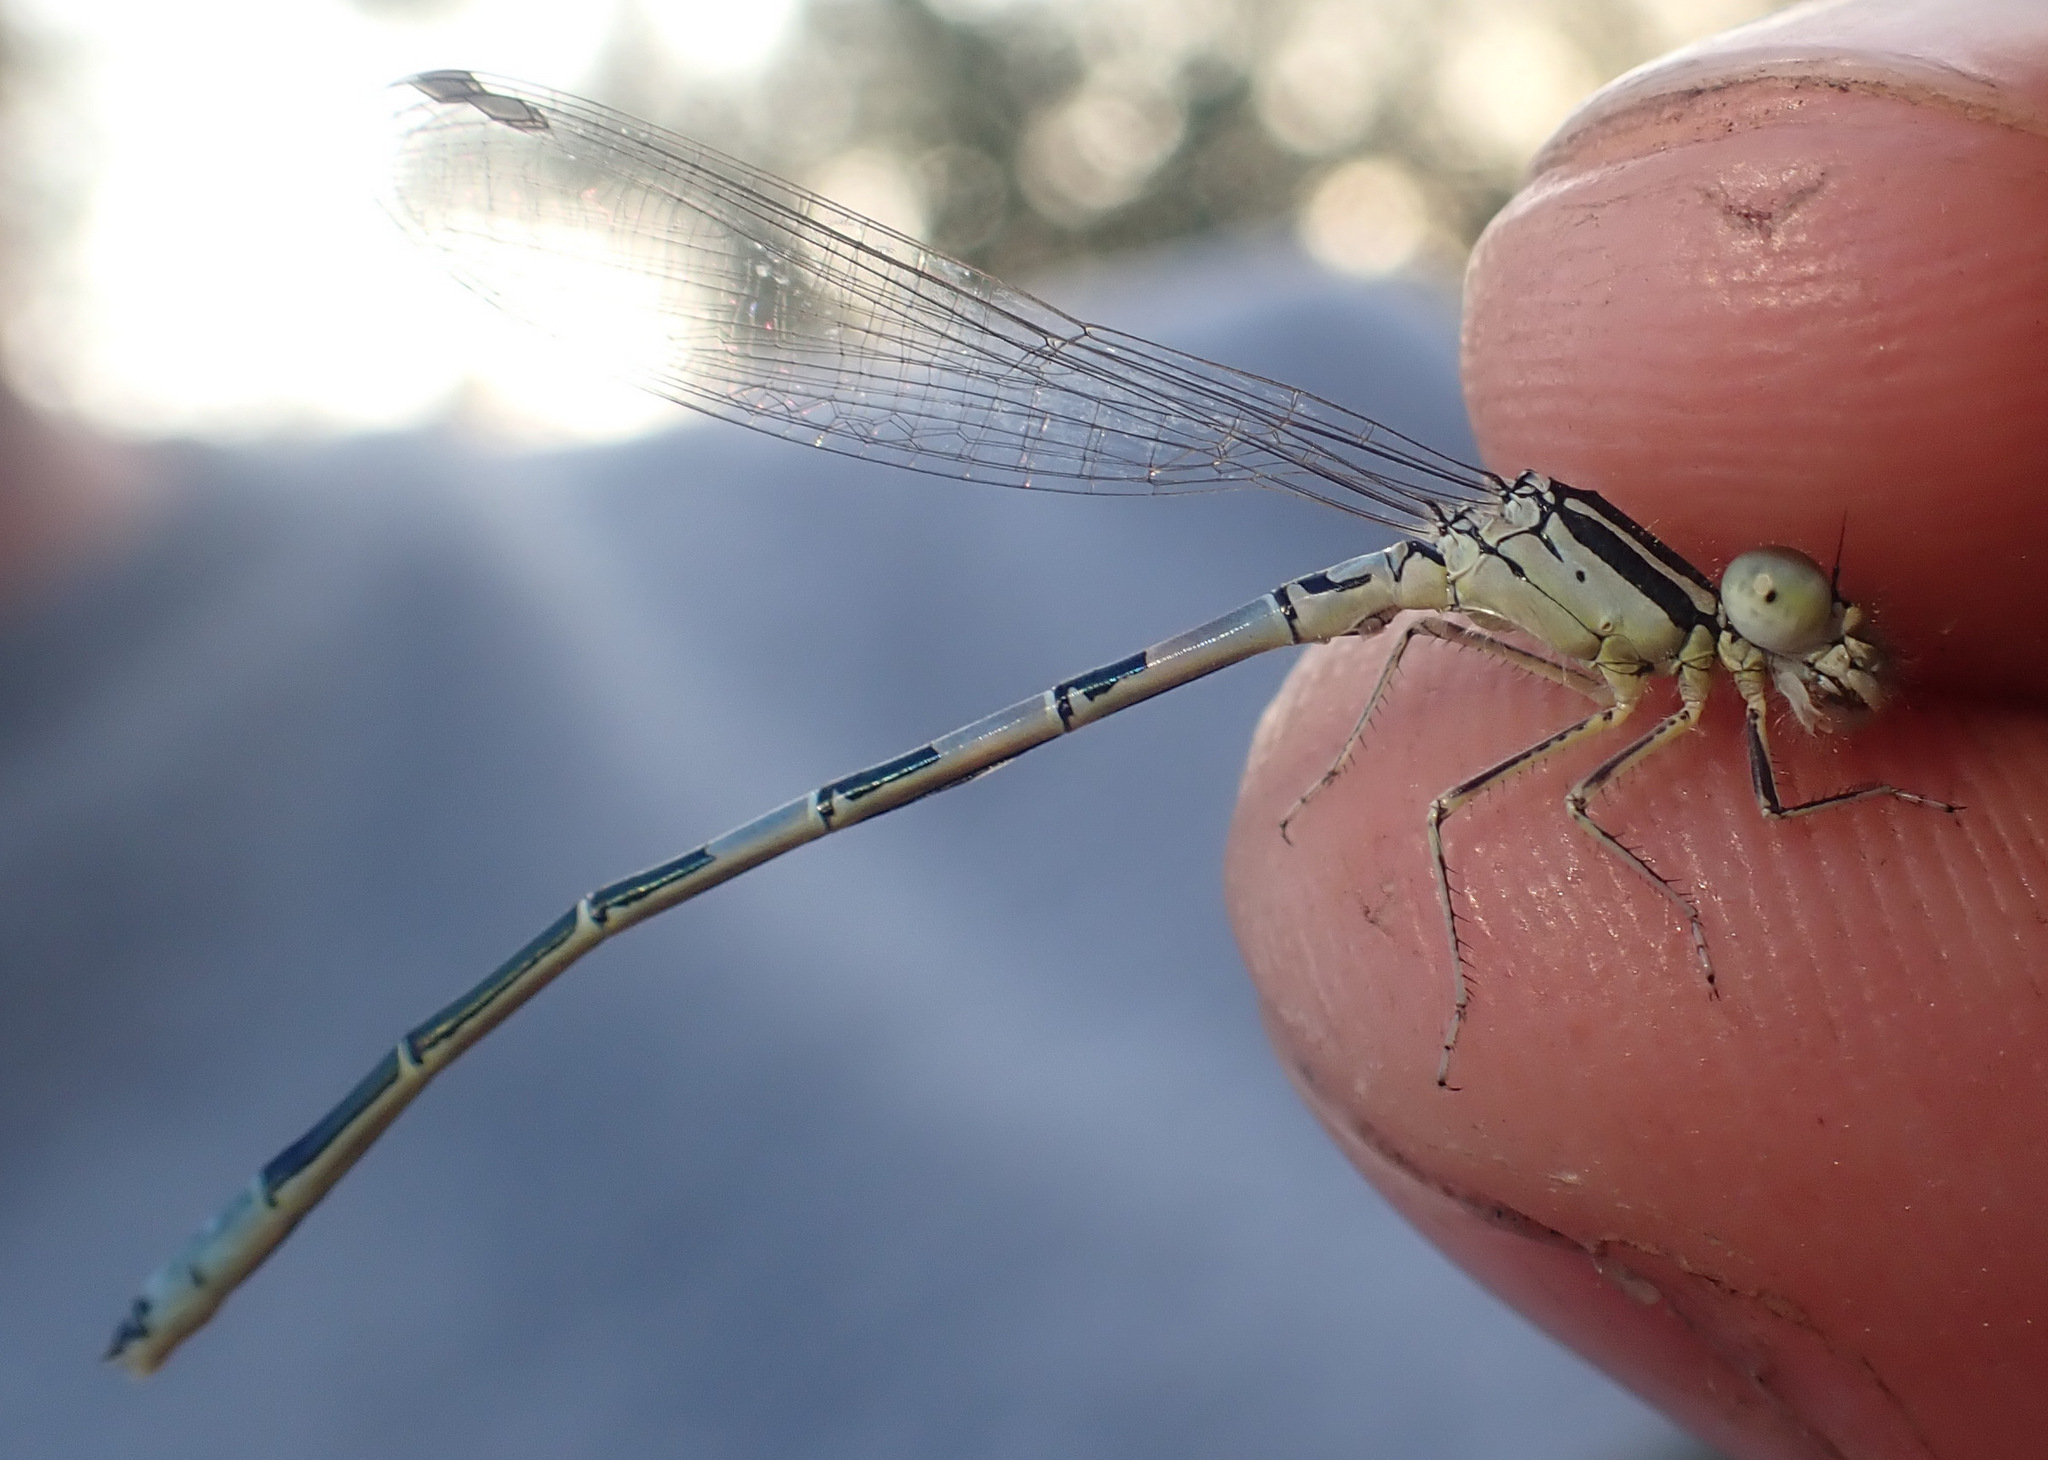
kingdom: Animalia
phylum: Arthropoda
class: Insecta
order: Odonata
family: Coenagrionidae
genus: Coenagrion
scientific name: Coenagrion scitulum
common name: Dainty bluet
